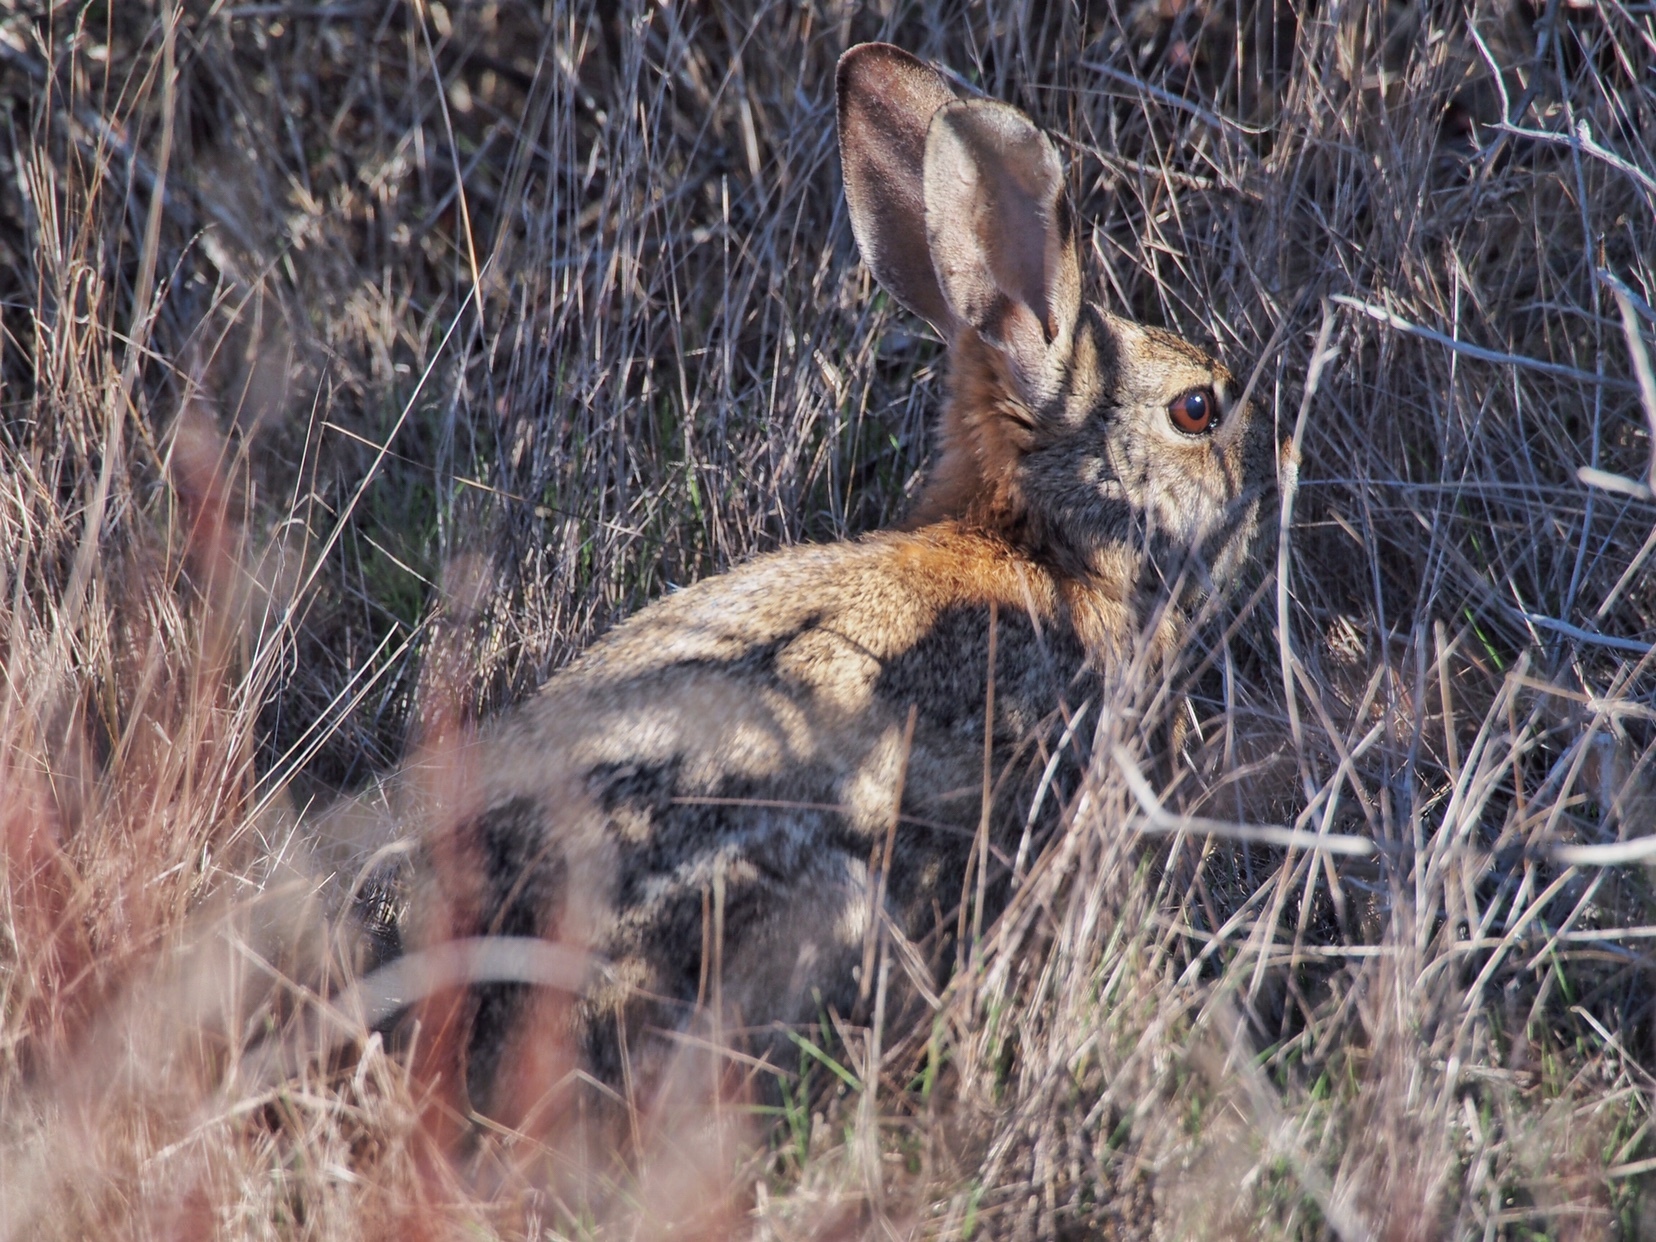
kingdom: Animalia
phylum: Chordata
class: Mammalia
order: Lagomorpha
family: Leporidae
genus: Sylvilagus
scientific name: Sylvilagus audubonii
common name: Desert cottontail
